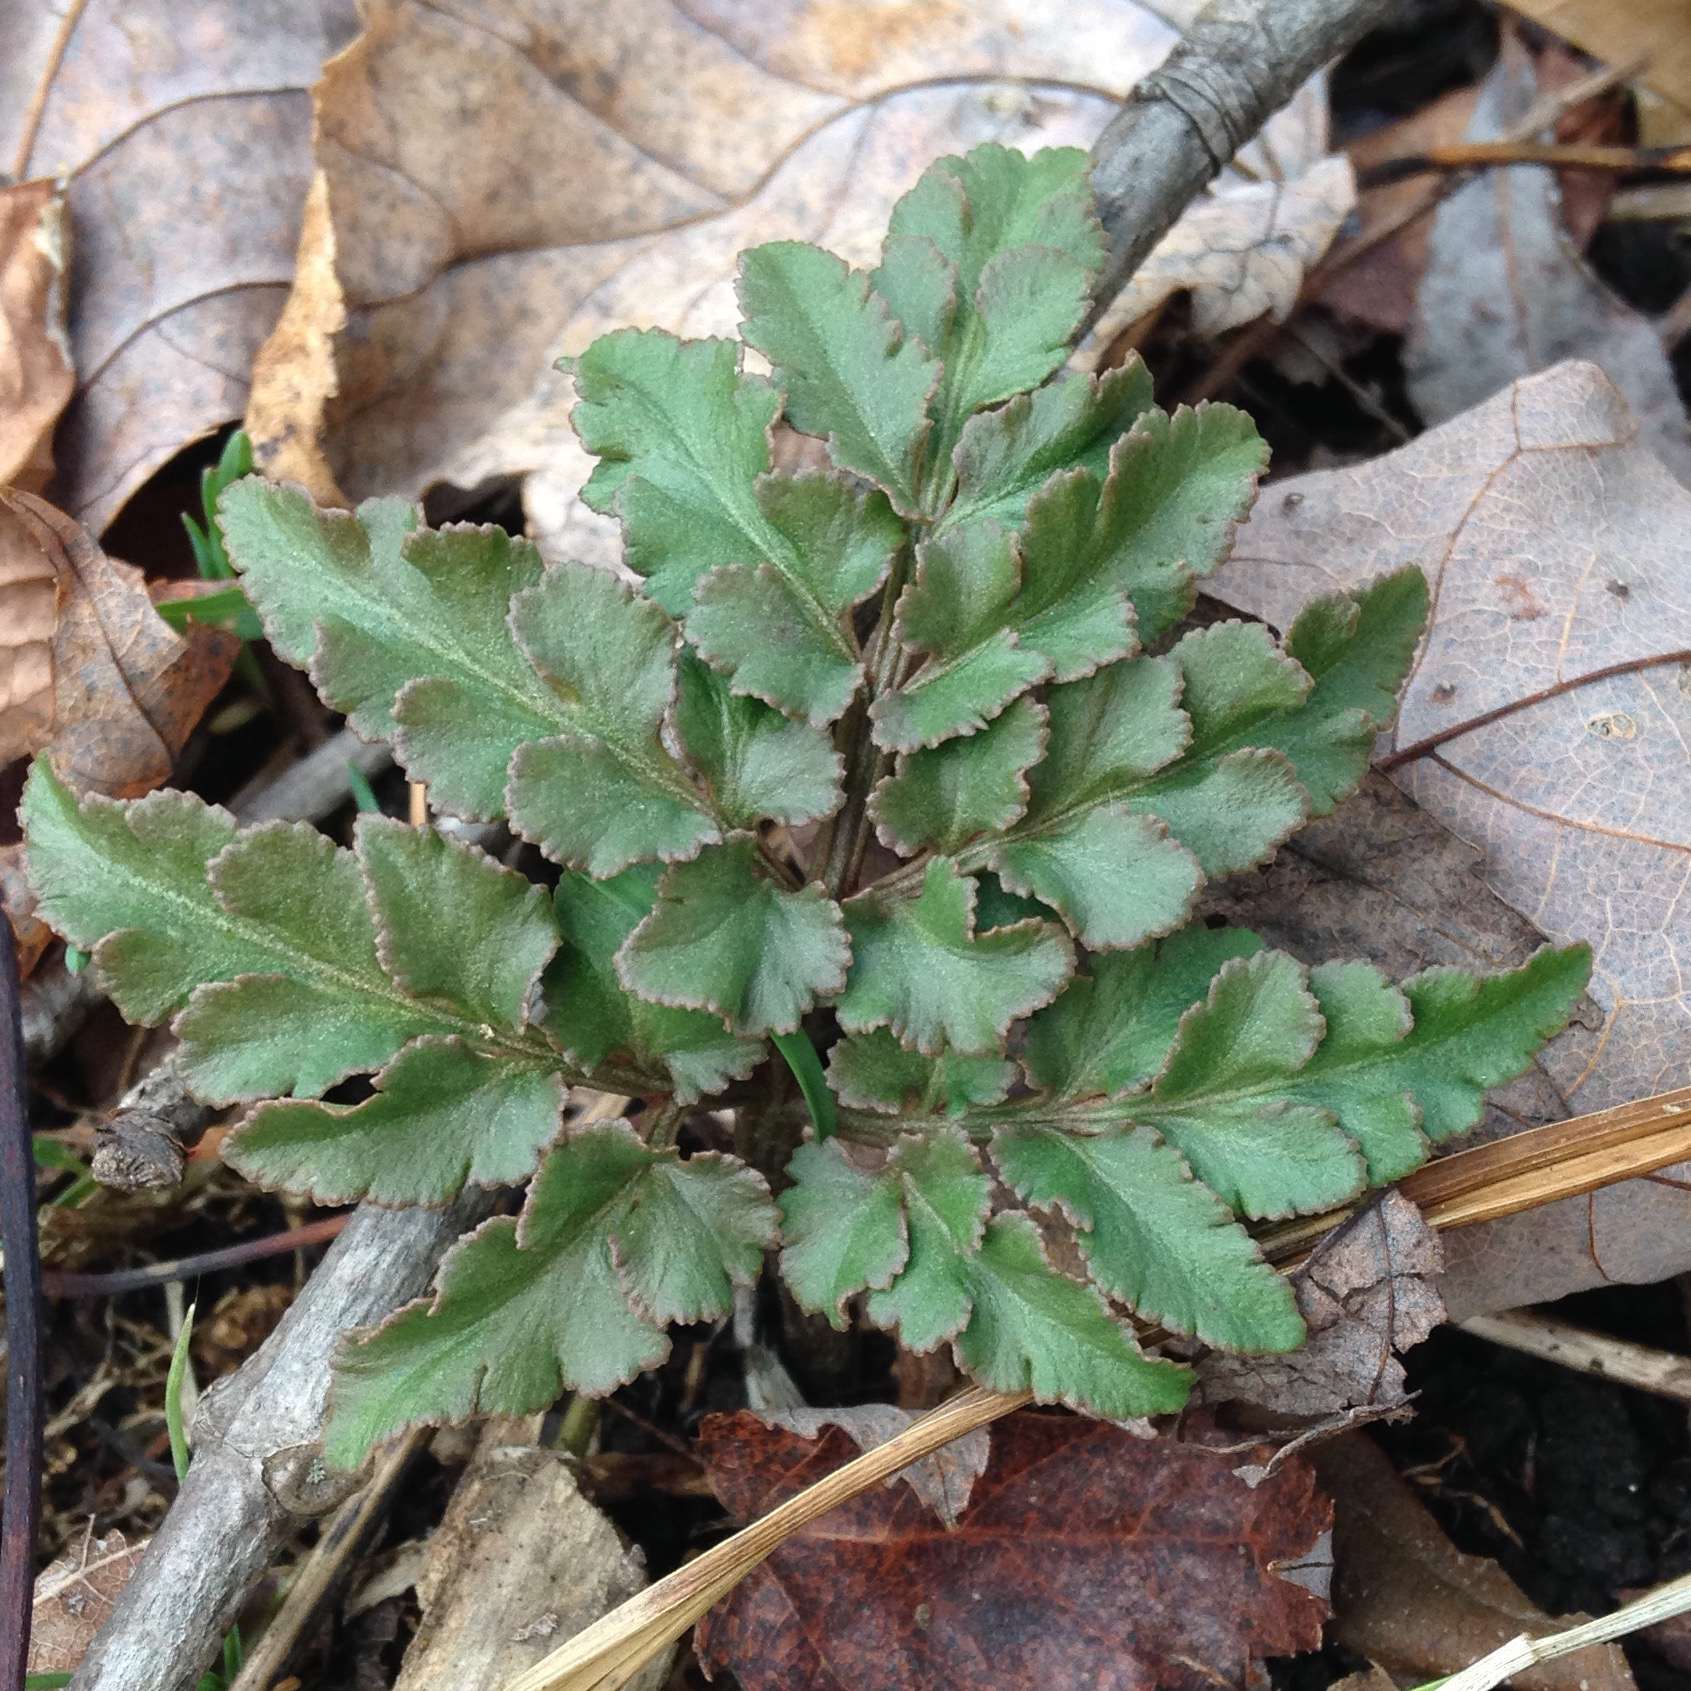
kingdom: Plantae
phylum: Tracheophyta
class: Polypodiopsida
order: Ophioglossales
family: Ophioglossaceae
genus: Sceptridium
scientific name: Sceptridium dissectum
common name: Cut-leaved grapefern
